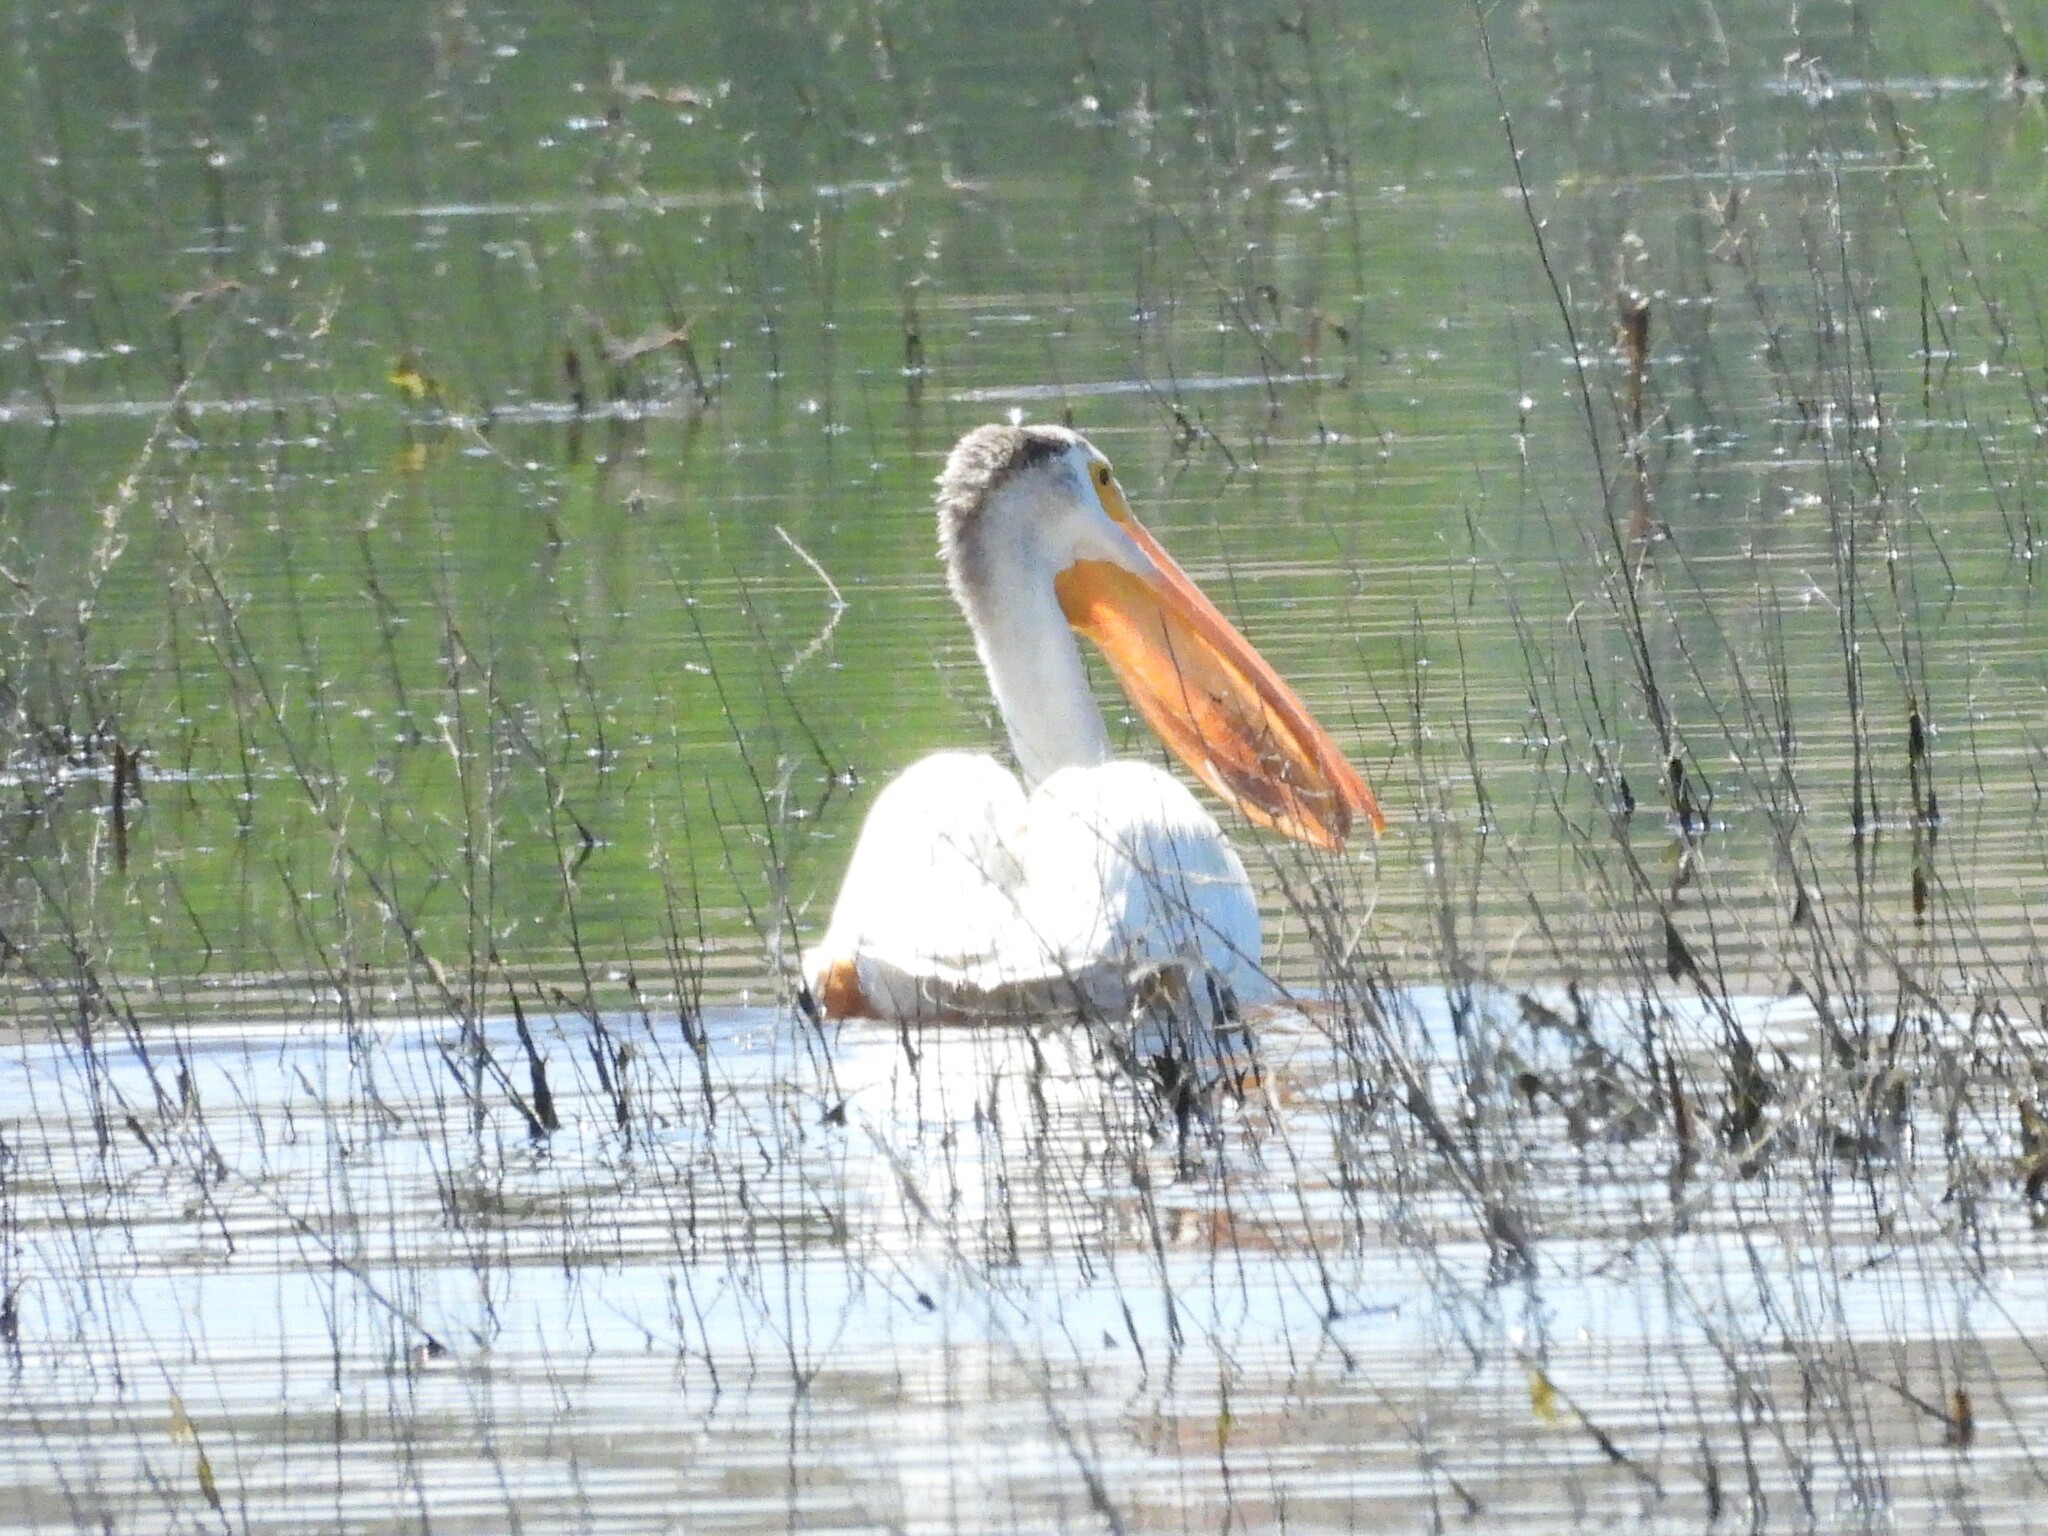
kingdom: Animalia
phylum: Chordata
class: Aves
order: Pelecaniformes
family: Pelecanidae
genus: Pelecanus
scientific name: Pelecanus erythrorhynchos
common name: American white pelican
